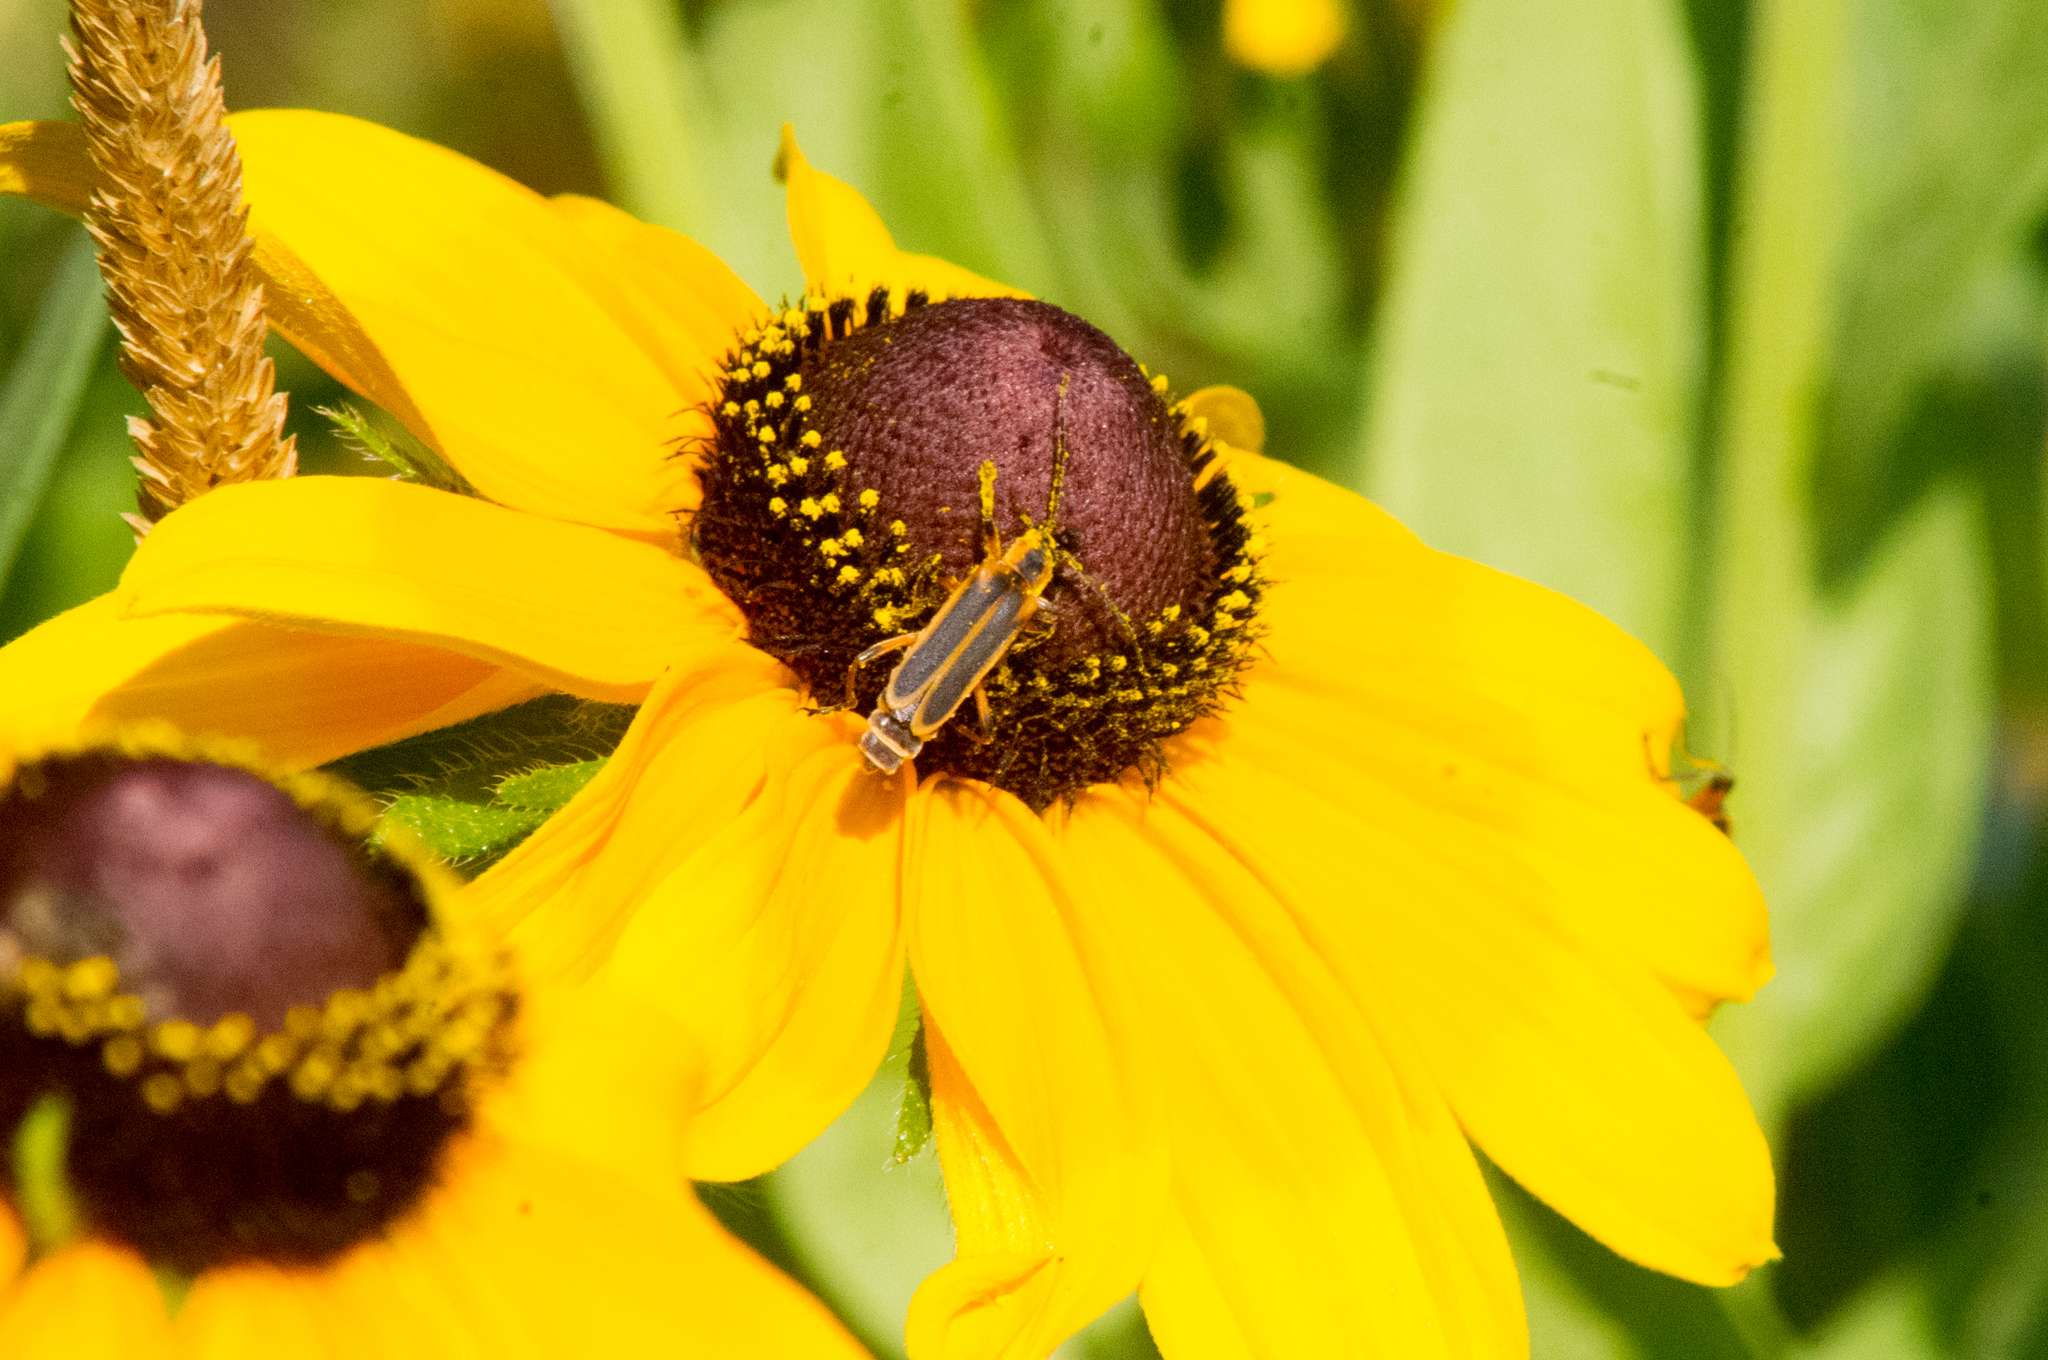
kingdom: Animalia
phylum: Arthropoda
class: Insecta
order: Coleoptera
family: Cantharidae
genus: Chauliognathus
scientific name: Chauliognathus marginatus
